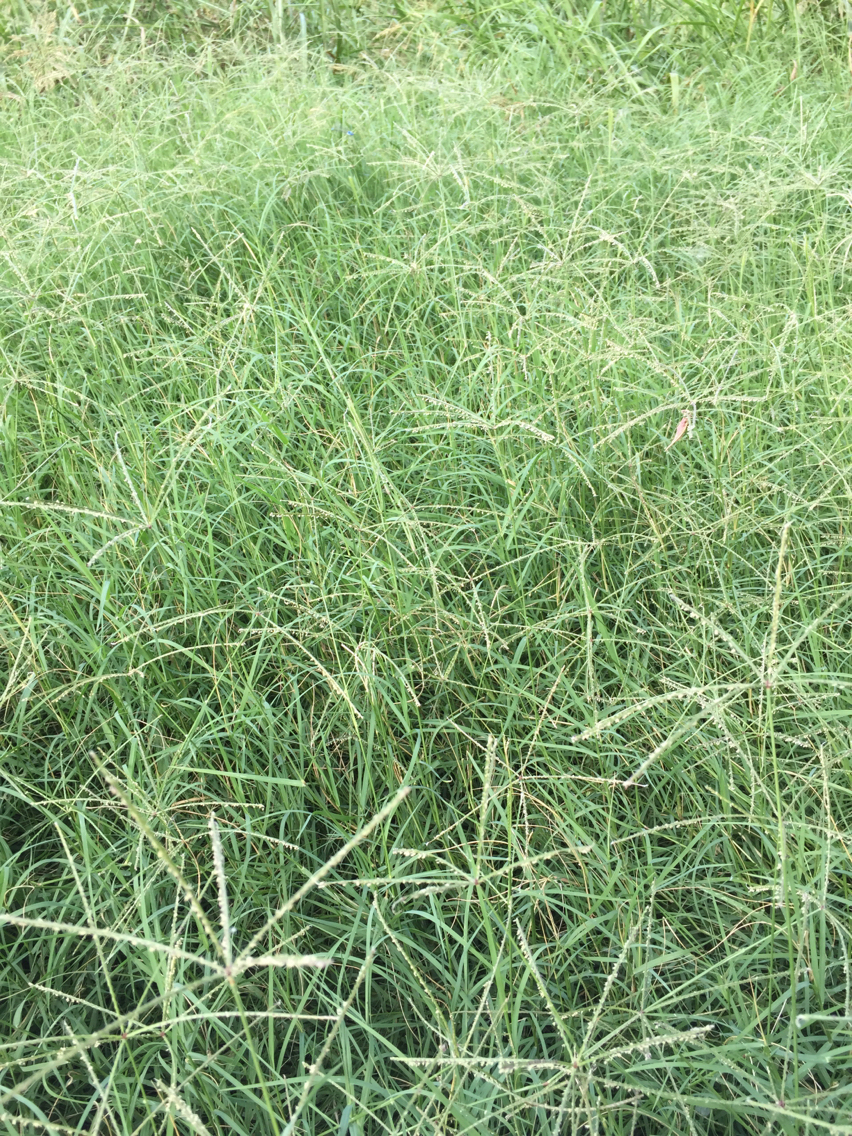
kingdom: Plantae
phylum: Tracheophyta
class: Liliopsida
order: Poales
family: Poaceae
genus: Cynodon
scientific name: Cynodon dactylon
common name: Bermuda grass
